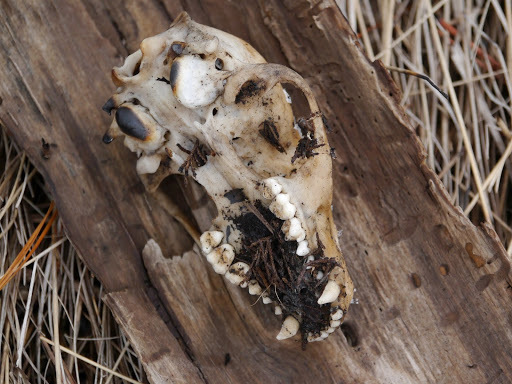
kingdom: Animalia
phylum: Chordata
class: Mammalia
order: Carnivora
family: Procyonidae
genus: Procyon
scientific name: Procyon lotor
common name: Raccoon
